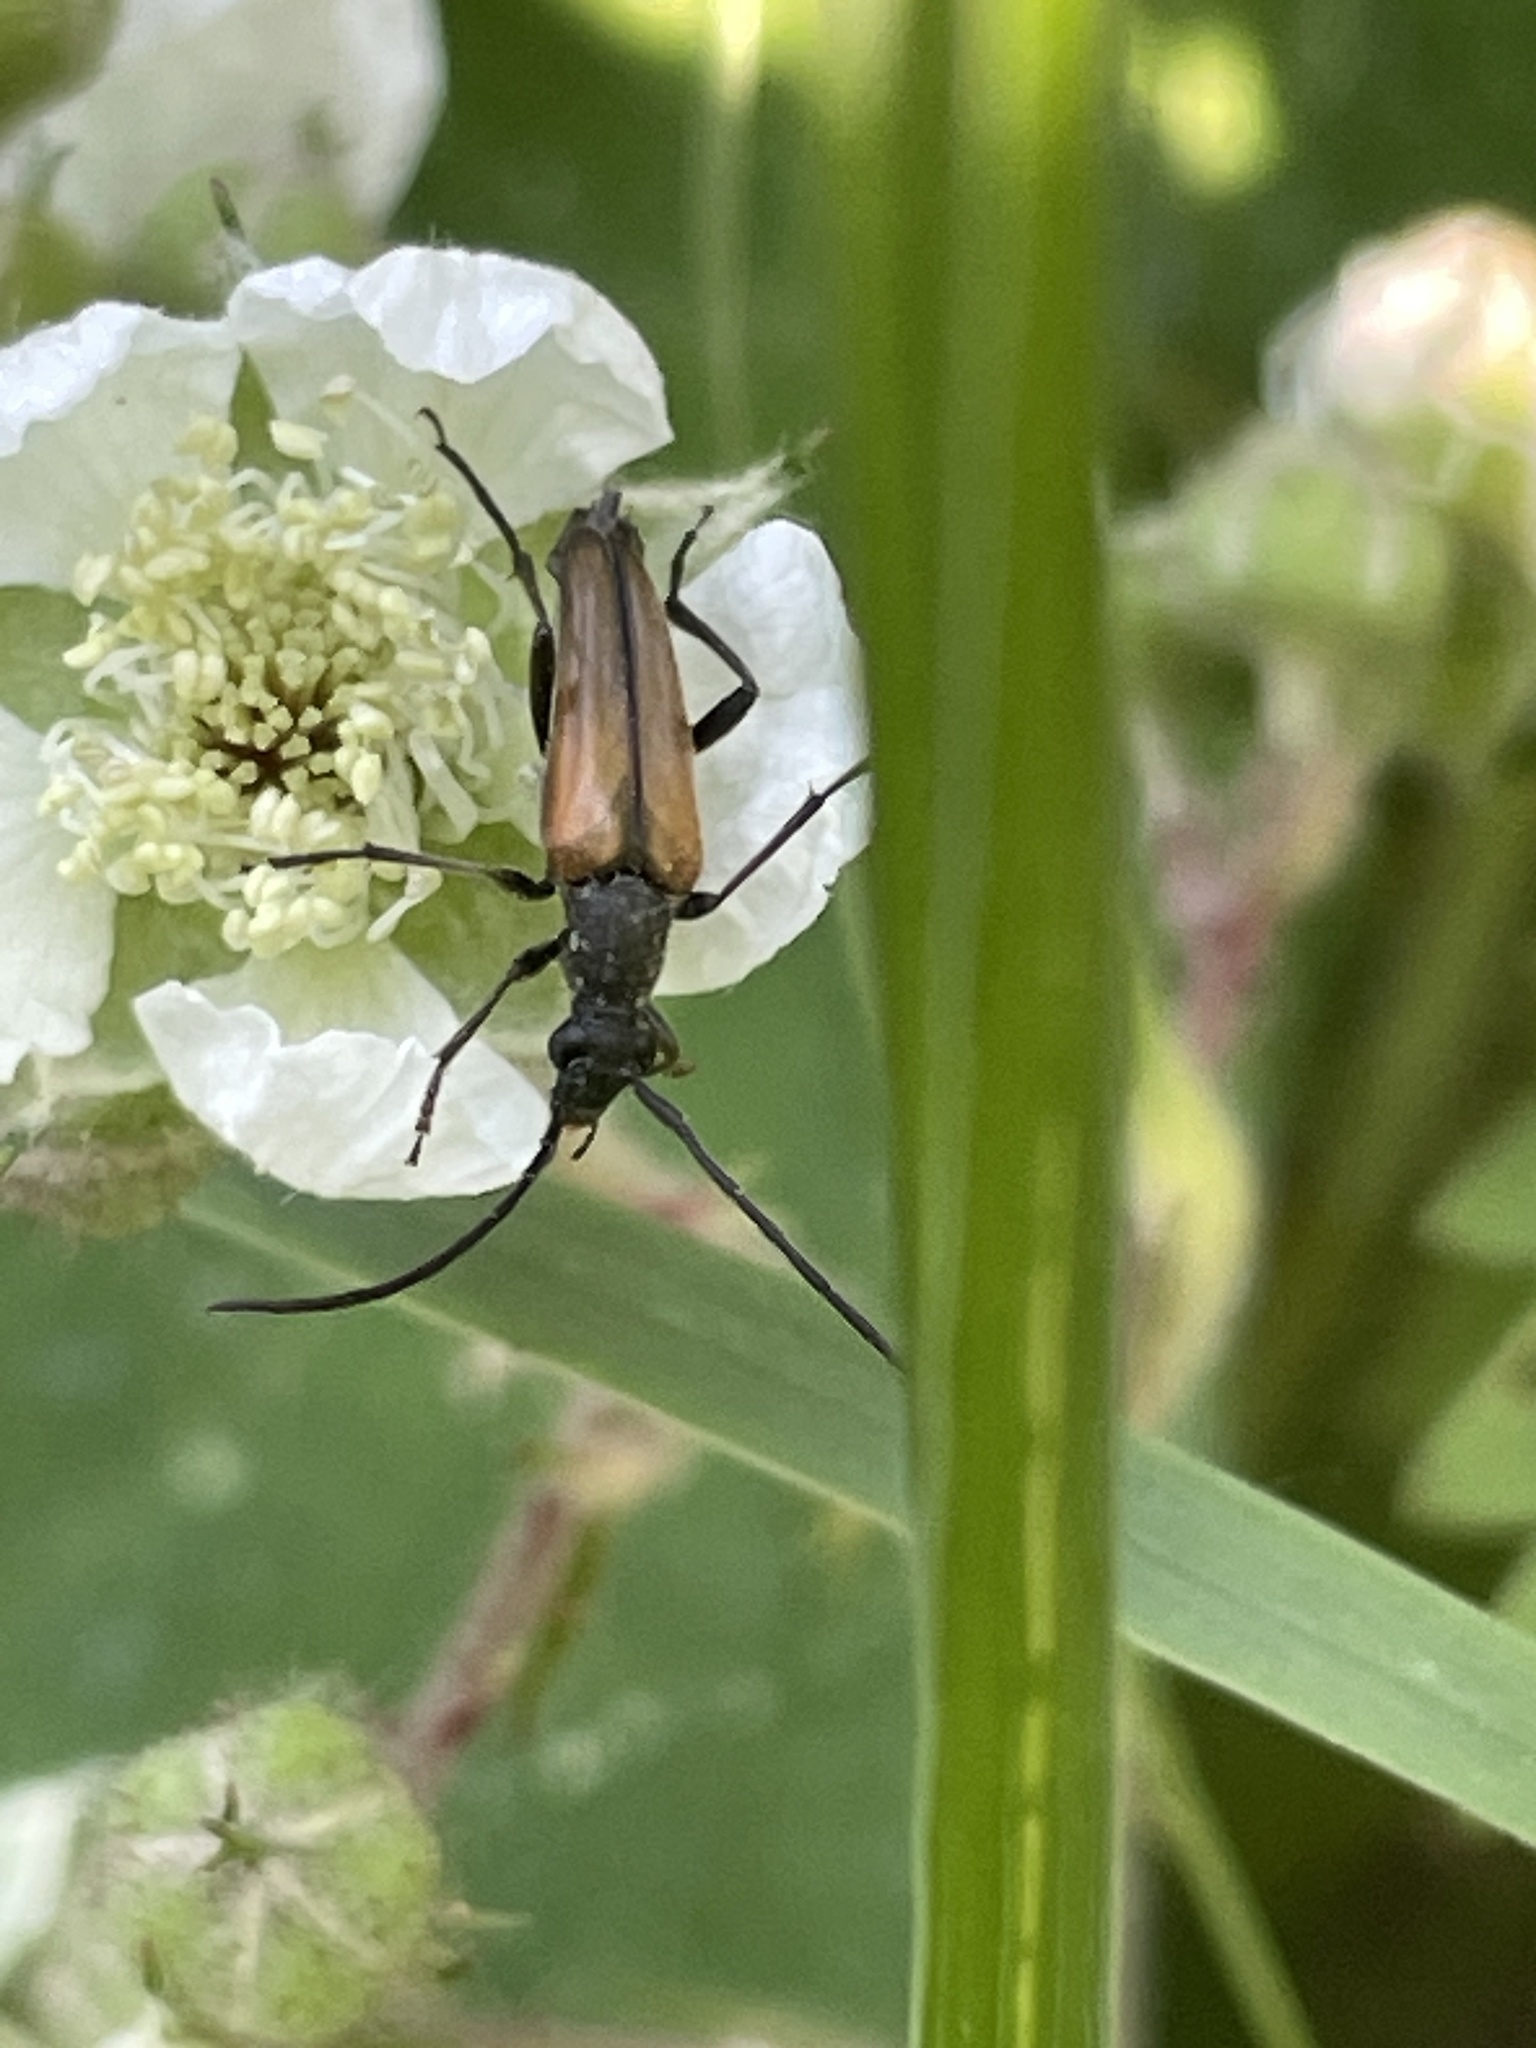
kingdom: Animalia
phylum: Arthropoda
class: Insecta
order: Coleoptera
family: Cerambycidae
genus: Stenurella
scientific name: Stenurella melanura
